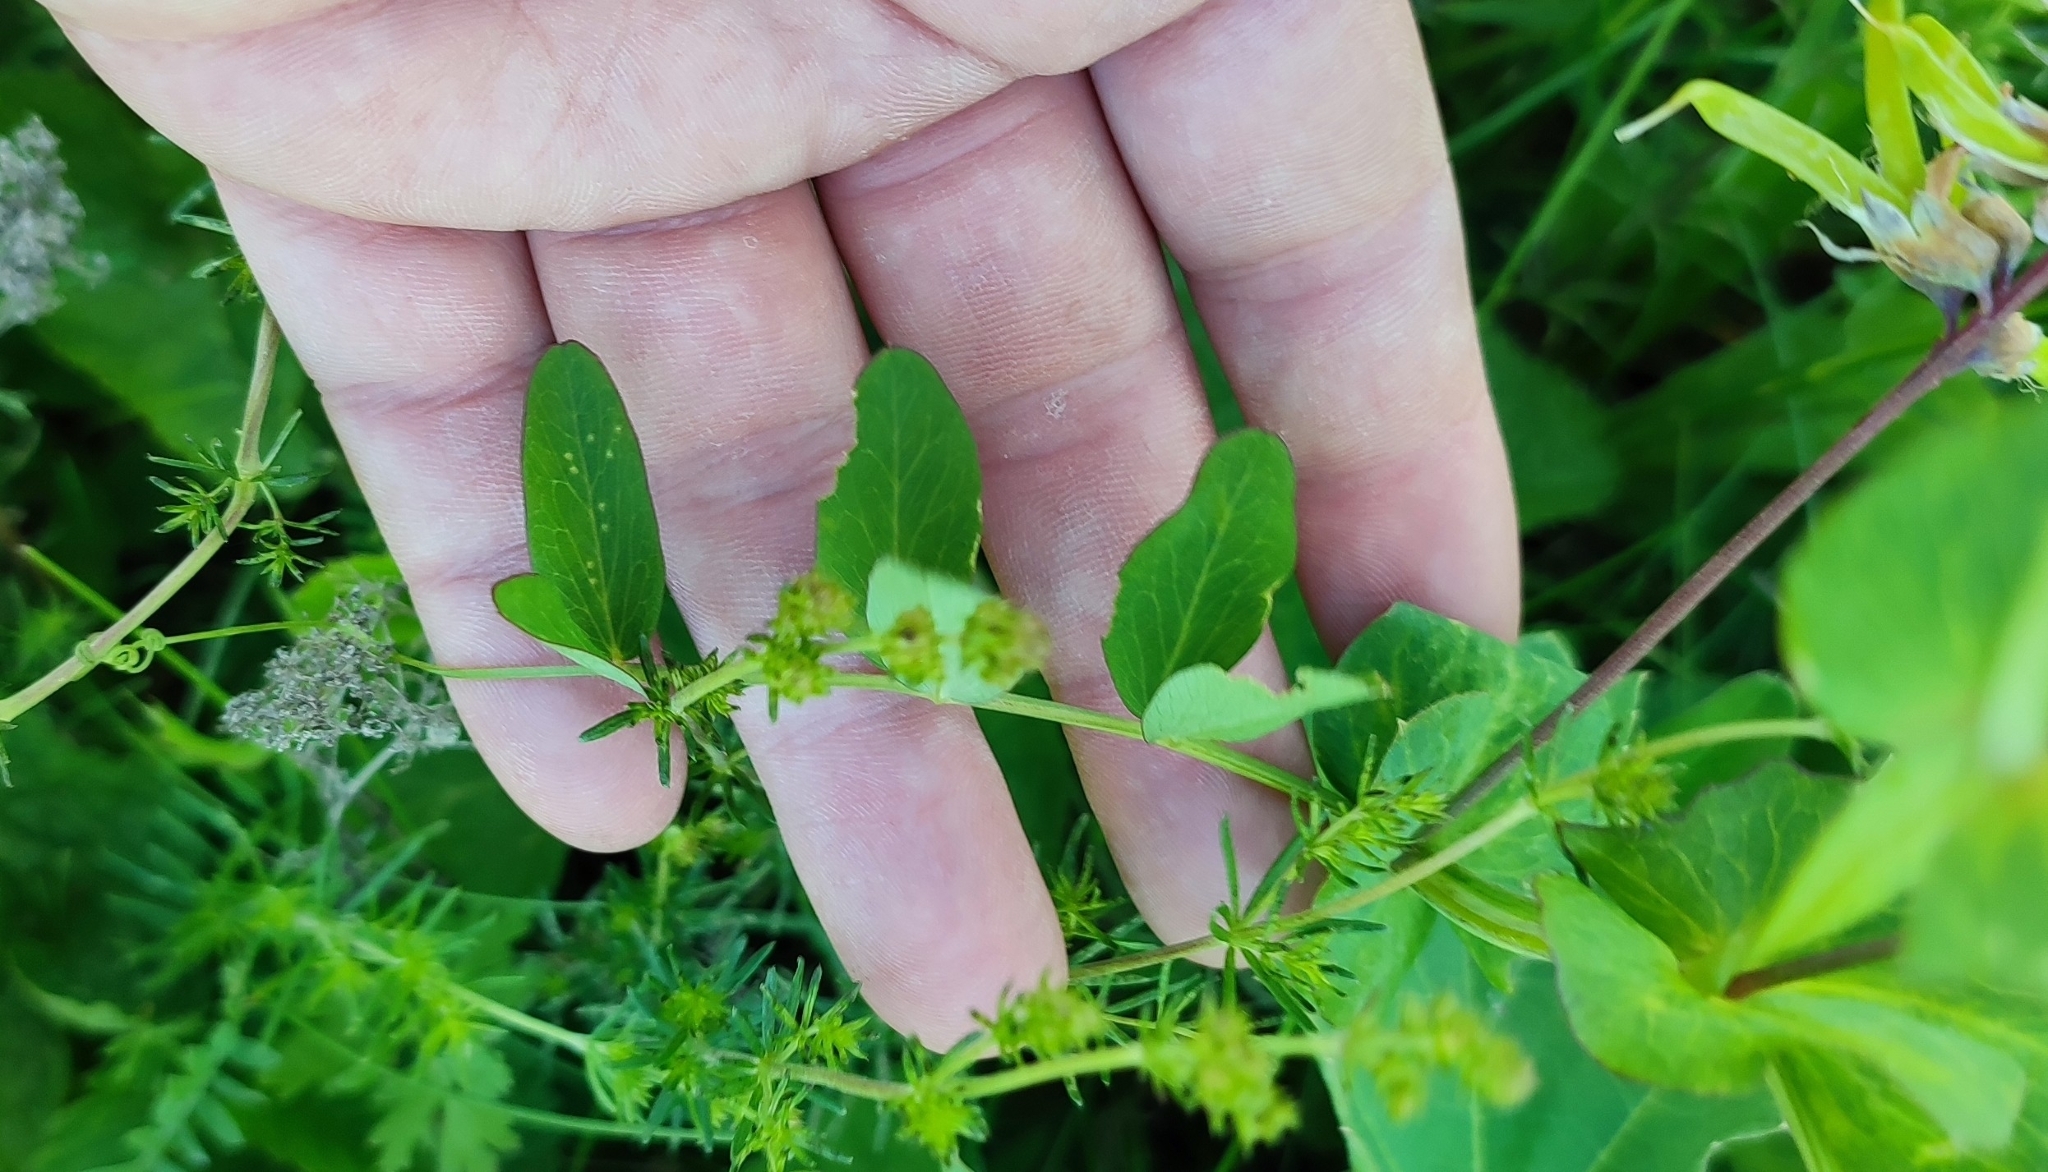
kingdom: Plantae
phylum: Tracheophyta
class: Magnoliopsida
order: Fabales
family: Fabaceae
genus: Lathyrus
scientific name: Lathyrus pisiformis
